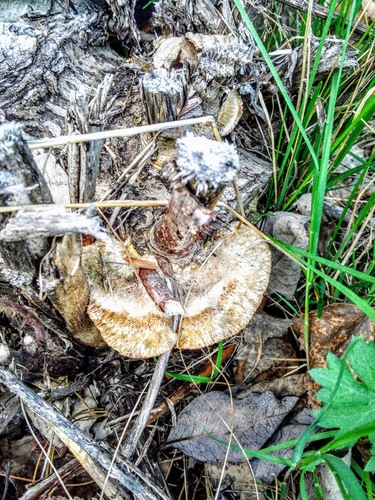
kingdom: Fungi
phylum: Basidiomycota
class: Agaricomycetes
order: Polyporales
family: Polyporaceae
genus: Trametes
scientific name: Trametes trogii
